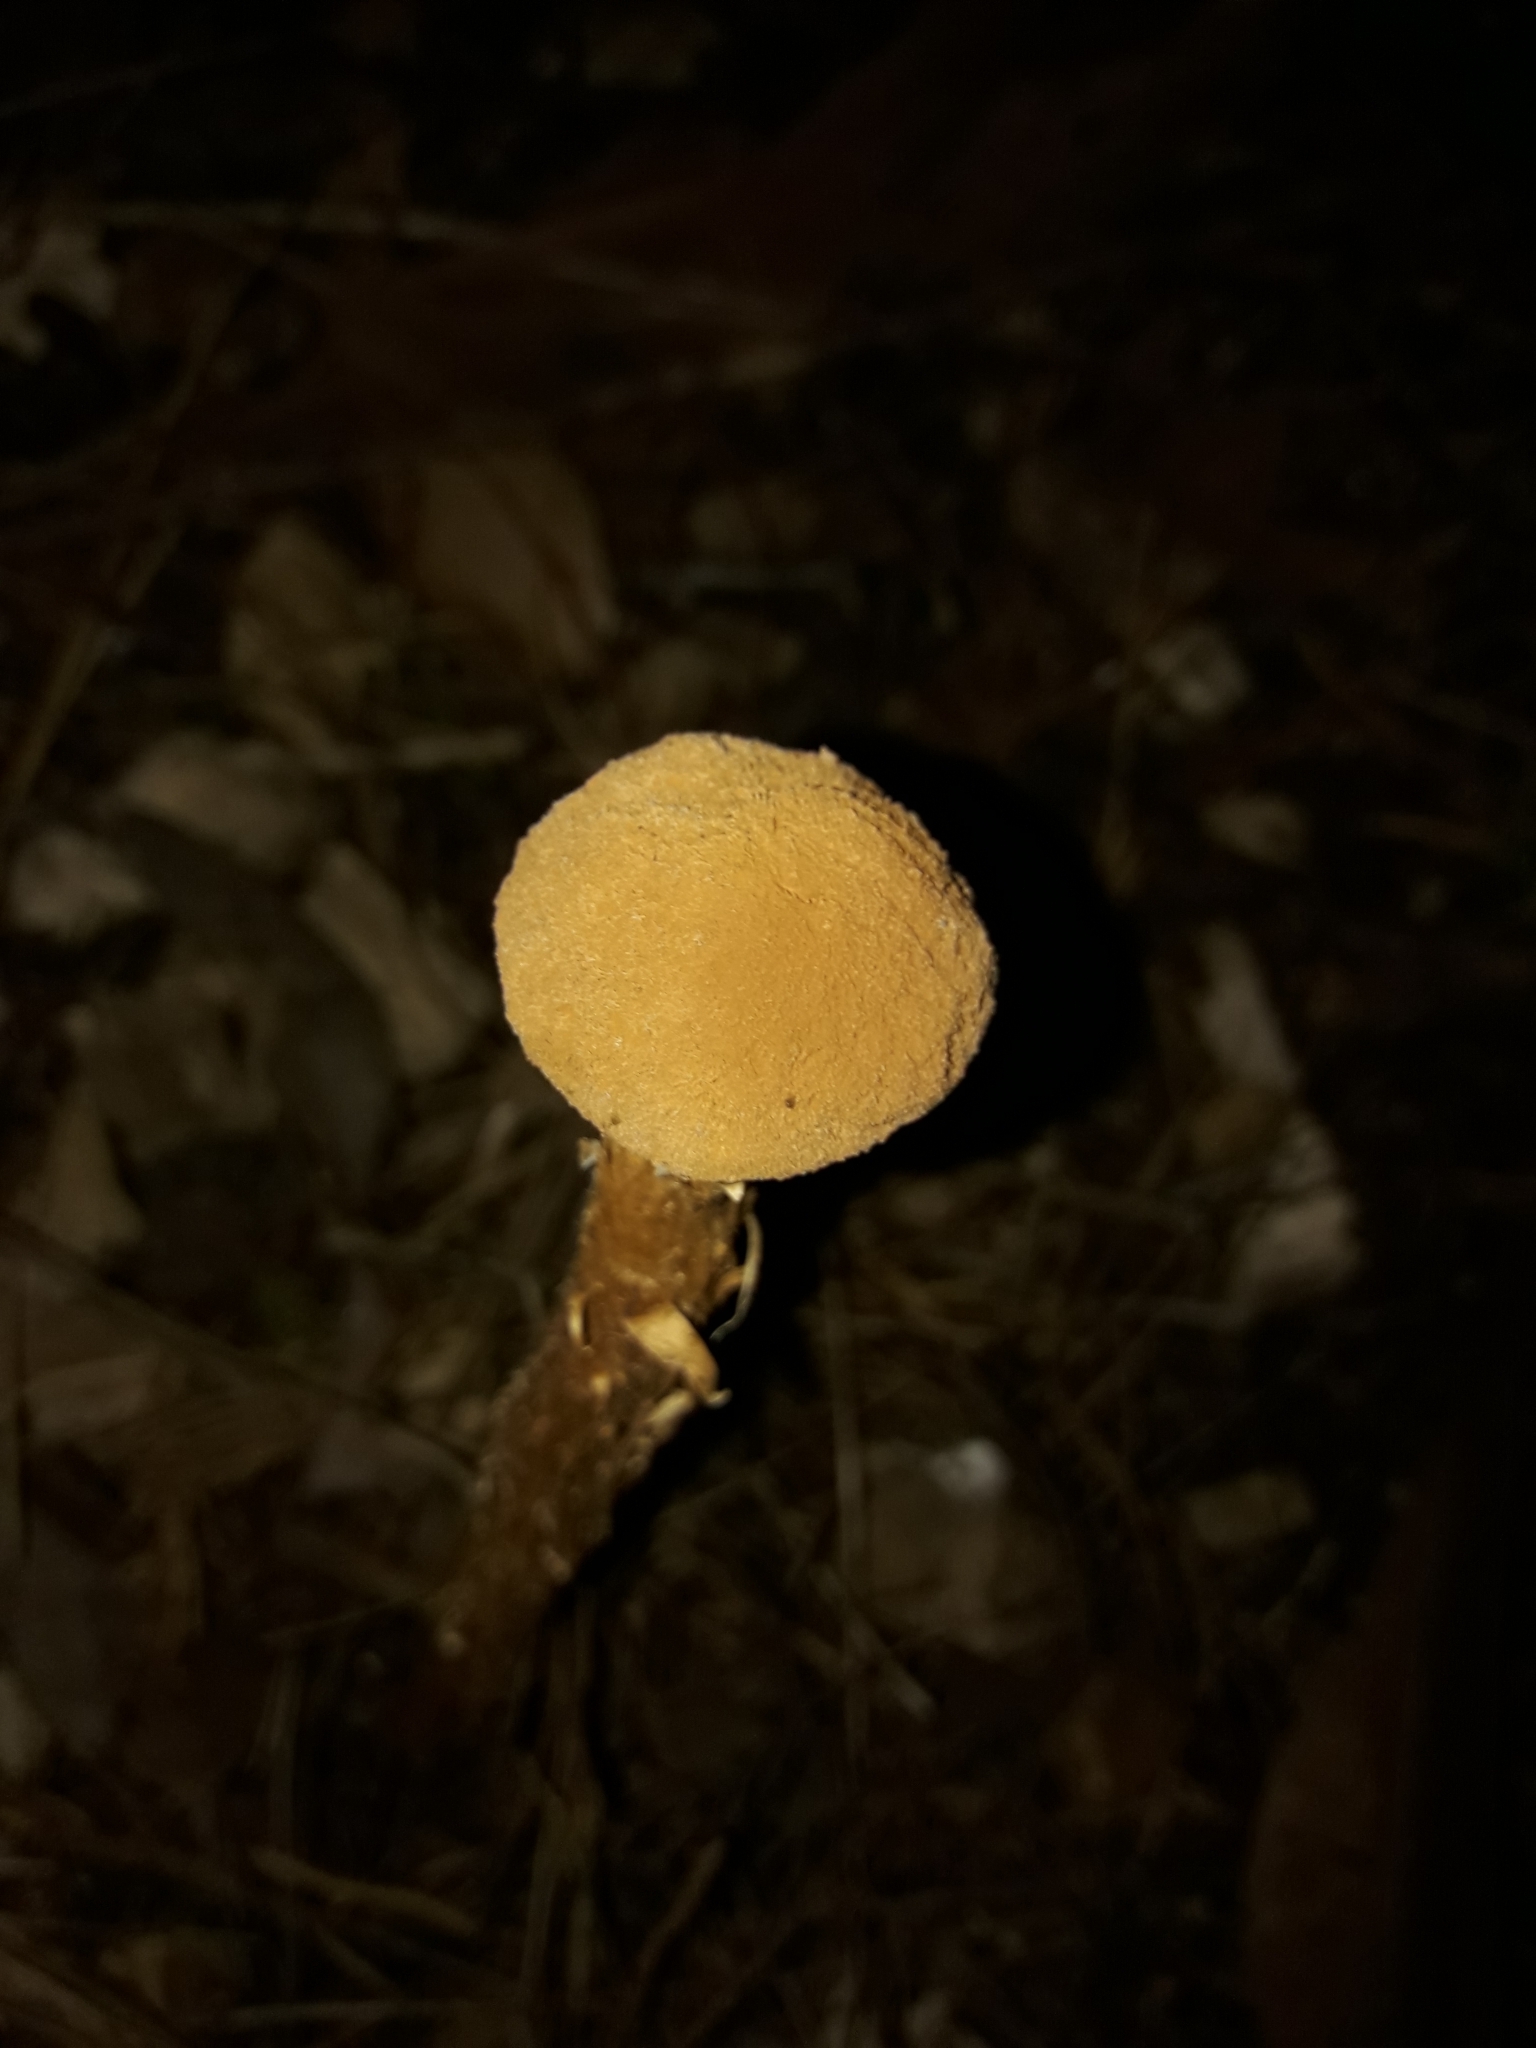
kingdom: Fungi
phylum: Basidiomycota
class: Agaricomycetes
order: Agaricales
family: Agaricaceae
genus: Battarrea
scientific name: Battarrea phalloides
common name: Sandy stiltball
